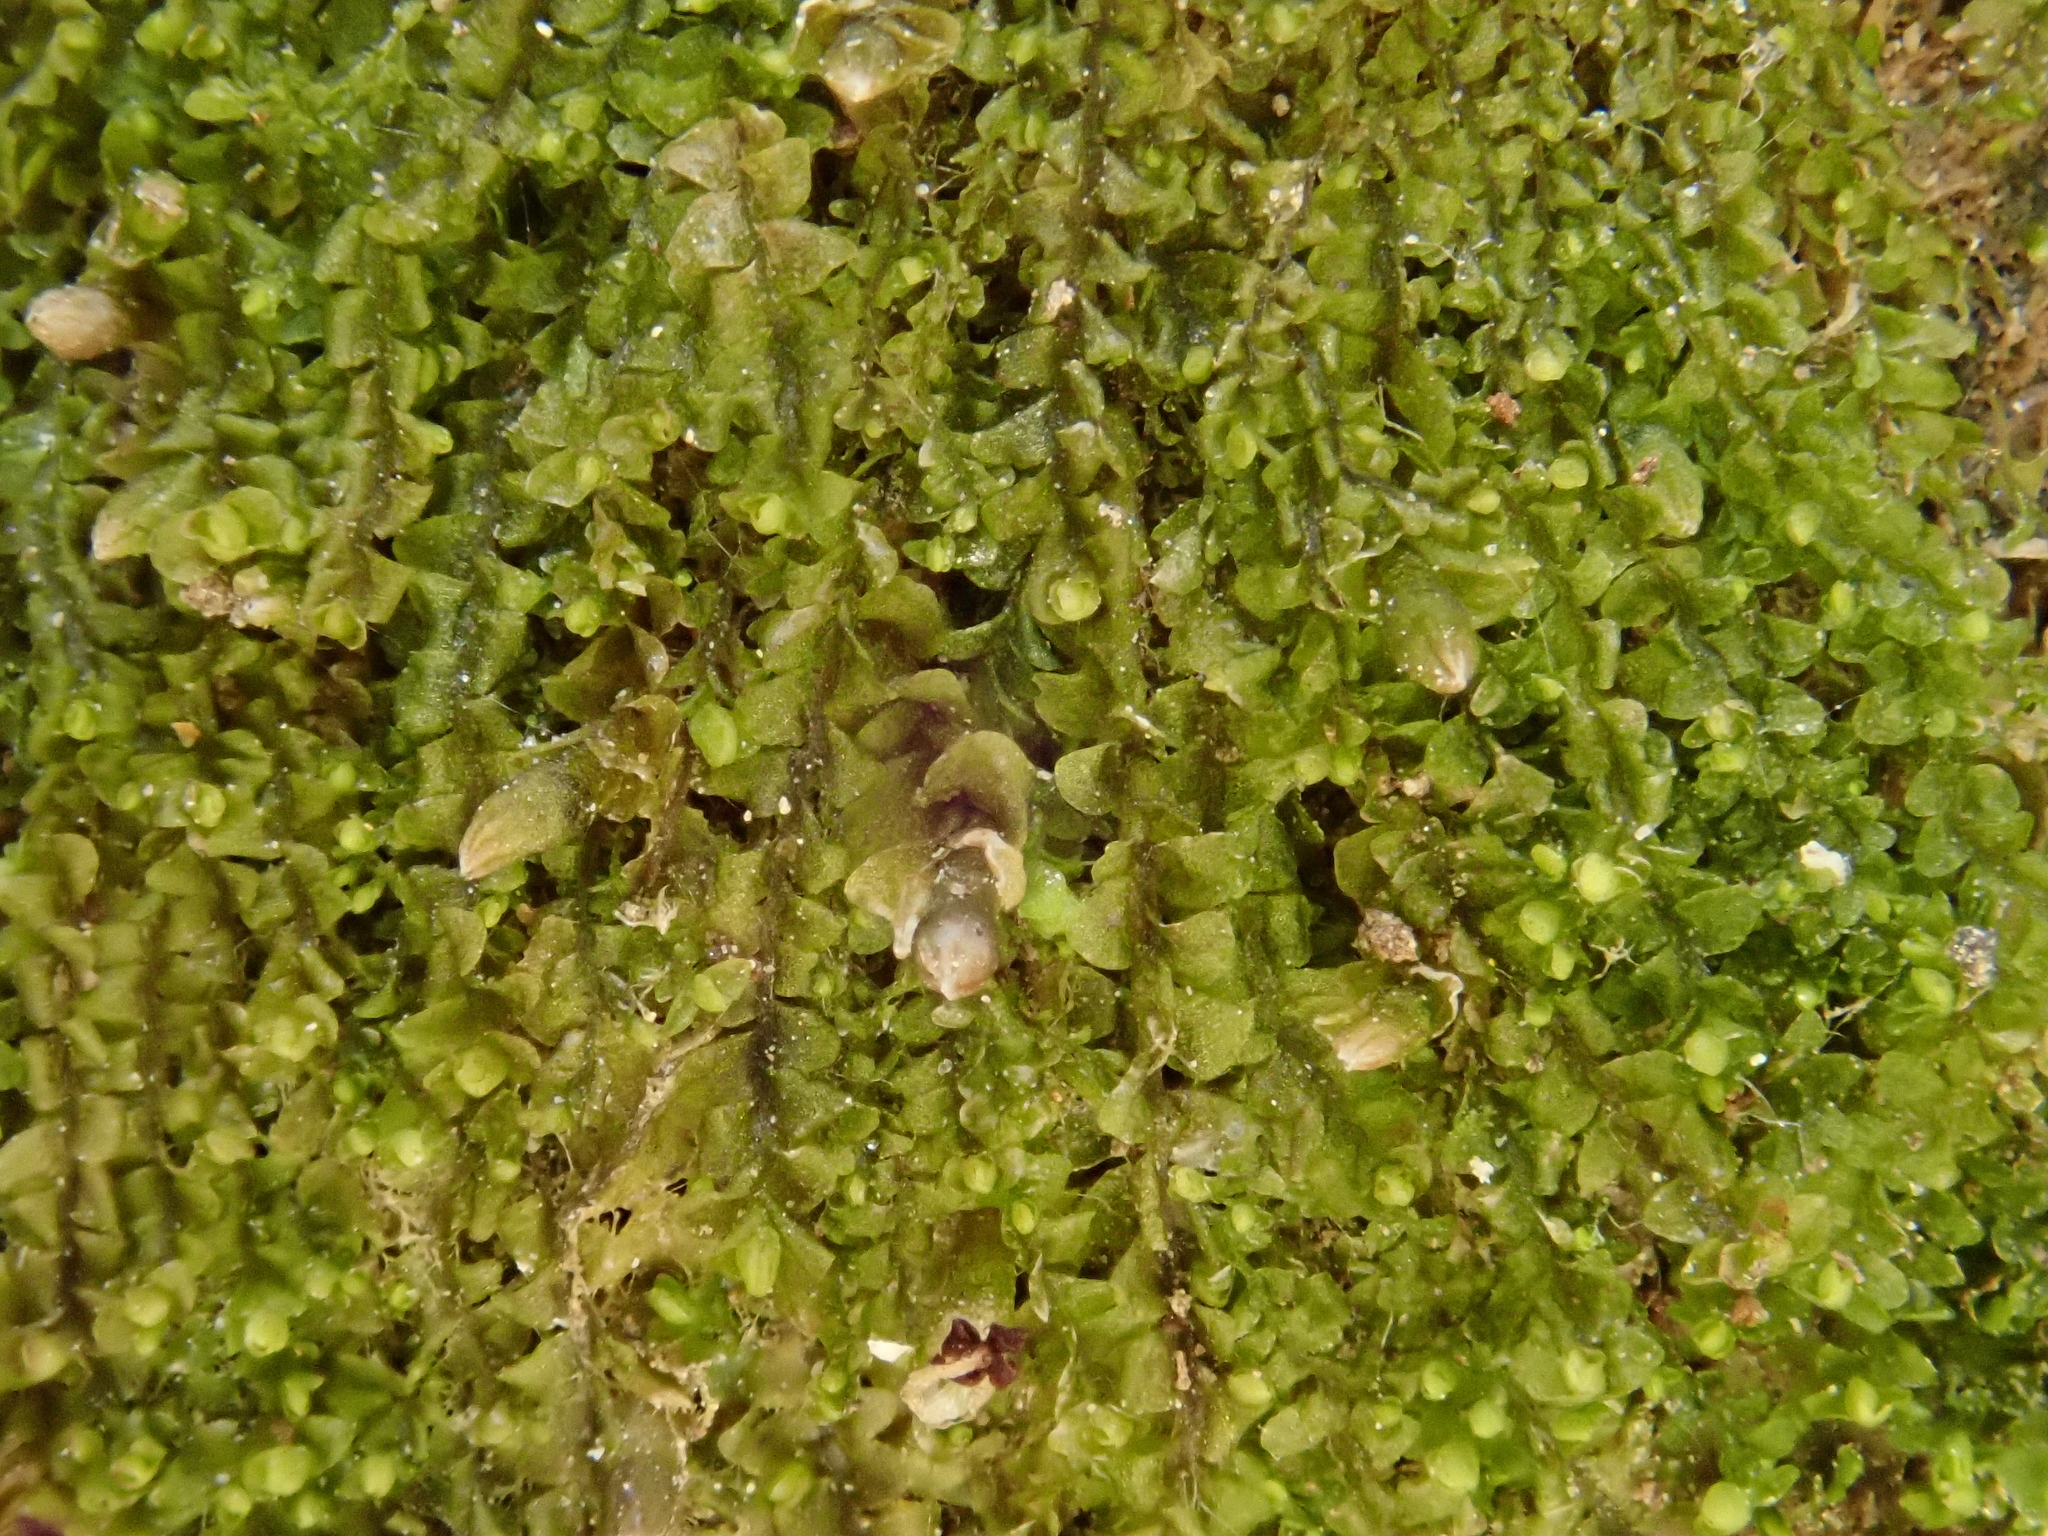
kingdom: Plantae
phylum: Marchantiophyta
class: Jungermanniopsida
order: Jungermanniales
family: Jungermanniaceae
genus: Jungermannia
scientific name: Jungermannia atrovirens
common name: Dark-green flapwort
